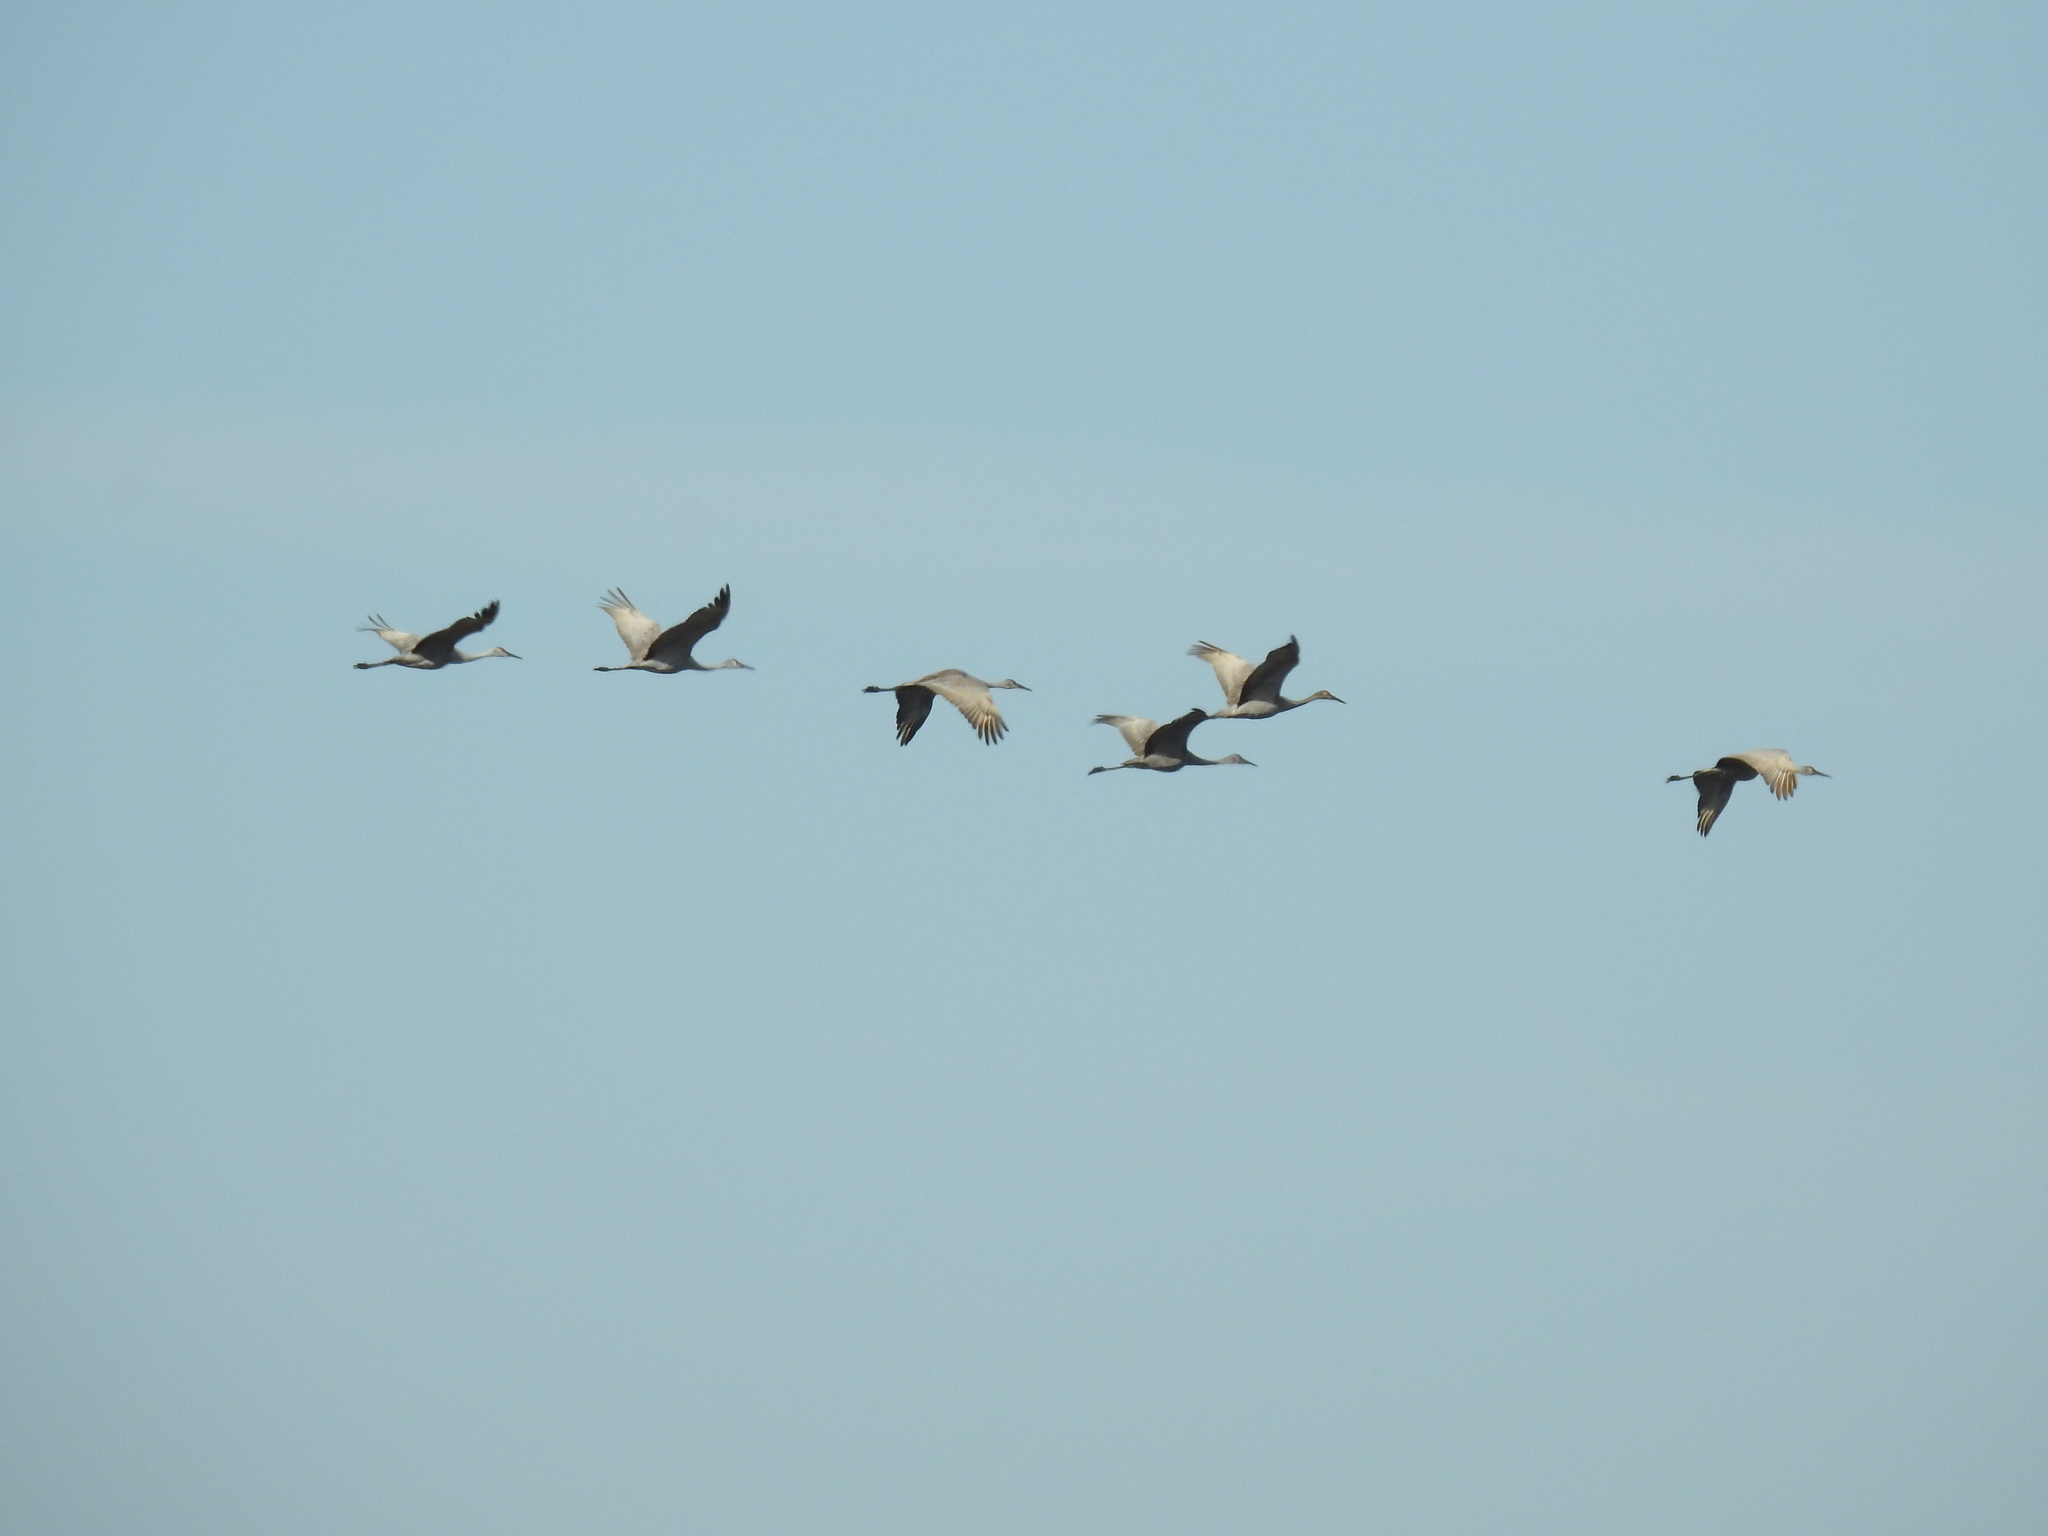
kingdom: Animalia
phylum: Chordata
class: Aves
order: Gruiformes
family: Gruidae
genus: Grus
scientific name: Grus canadensis
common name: Sandhill crane
